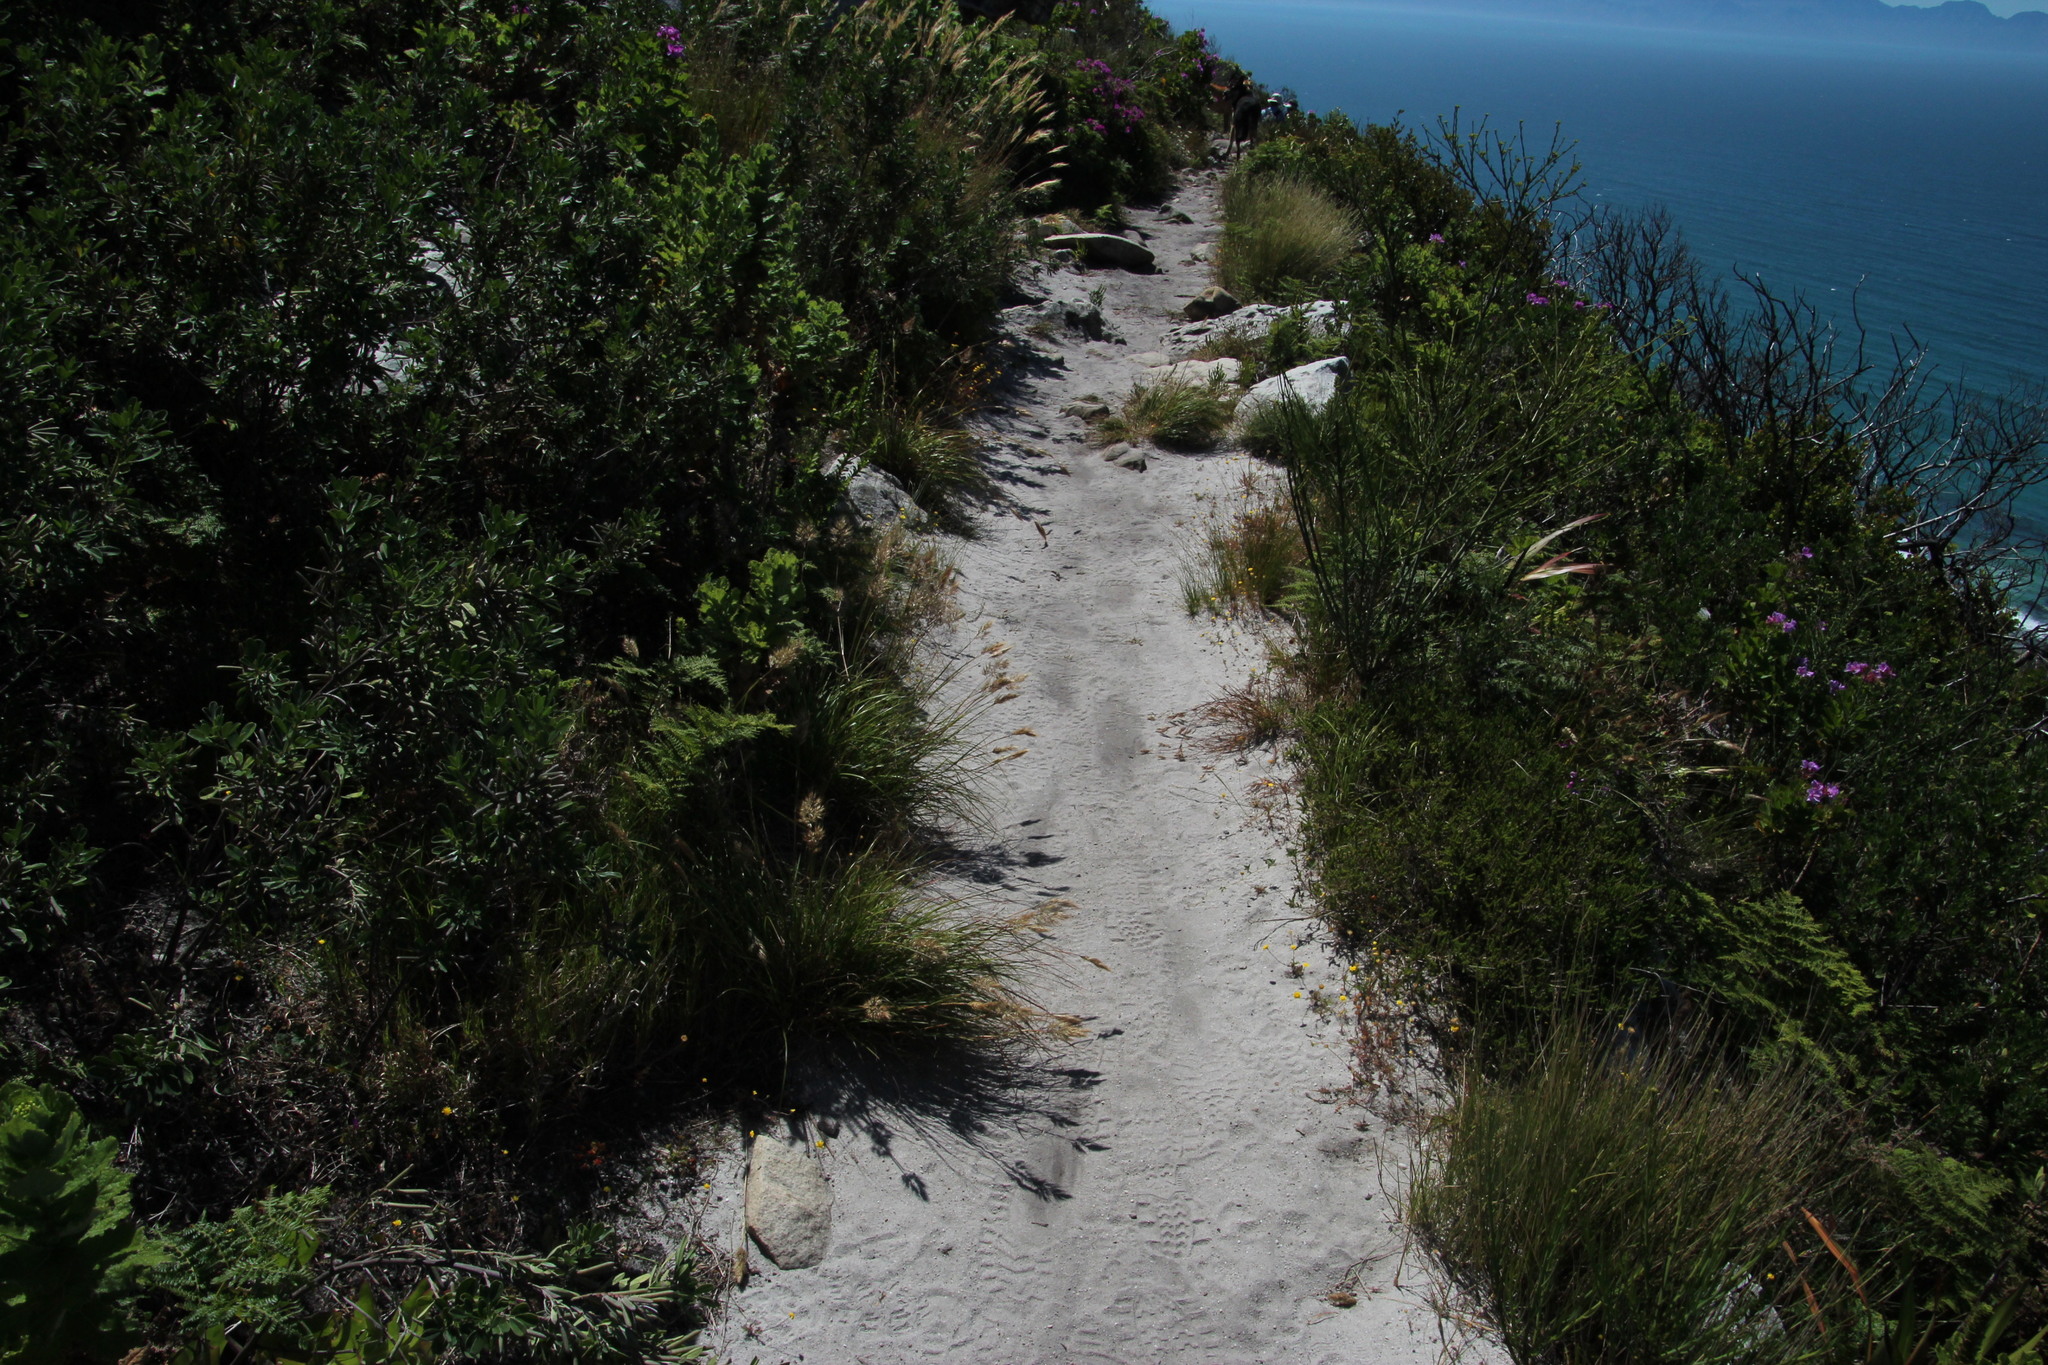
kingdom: Plantae
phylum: Tracheophyta
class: Liliopsida
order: Poales
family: Poaceae
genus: Pentameris
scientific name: Pentameris curvifolia
